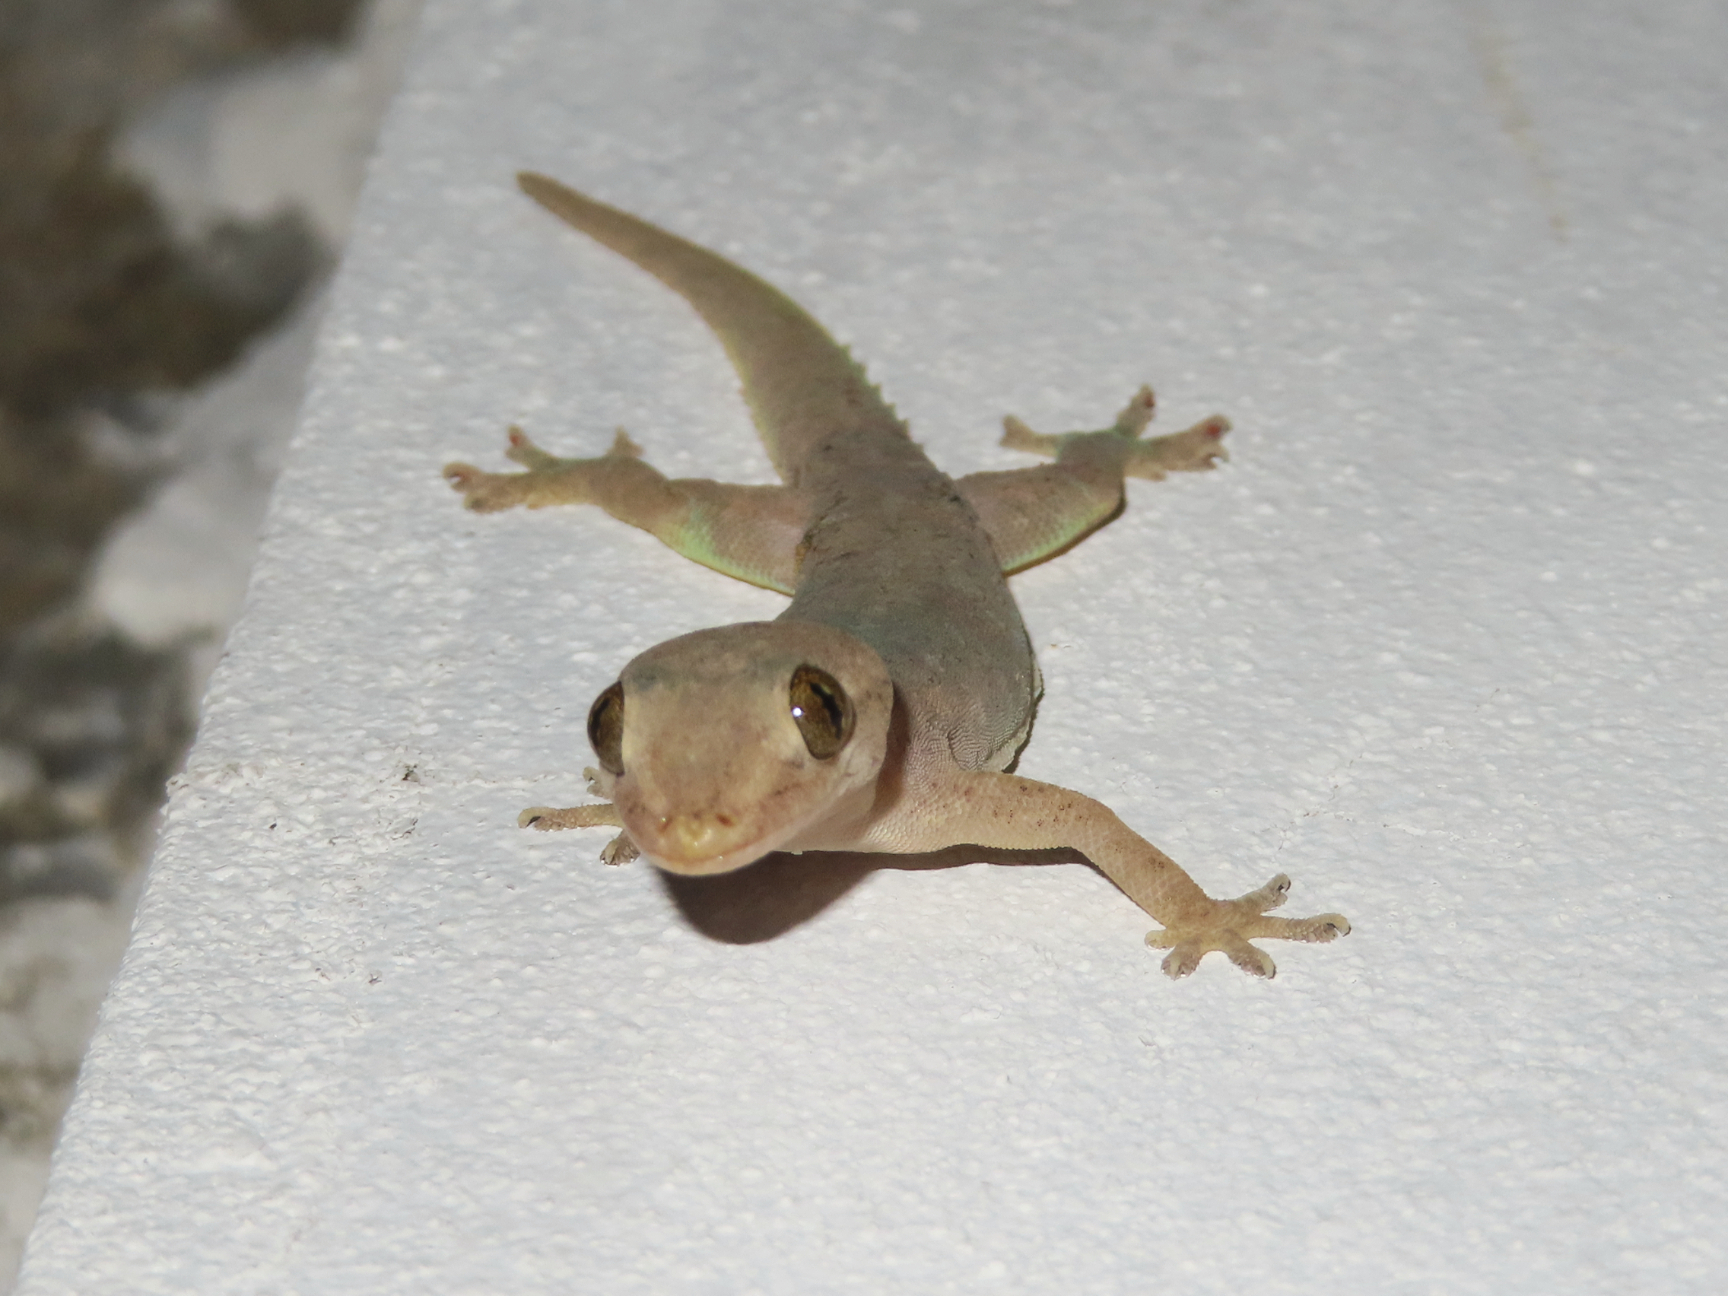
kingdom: Animalia
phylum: Chordata
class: Squamata
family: Gekkonidae
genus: Hemidactylus
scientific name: Hemidactylus frenatus
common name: Common house gecko
